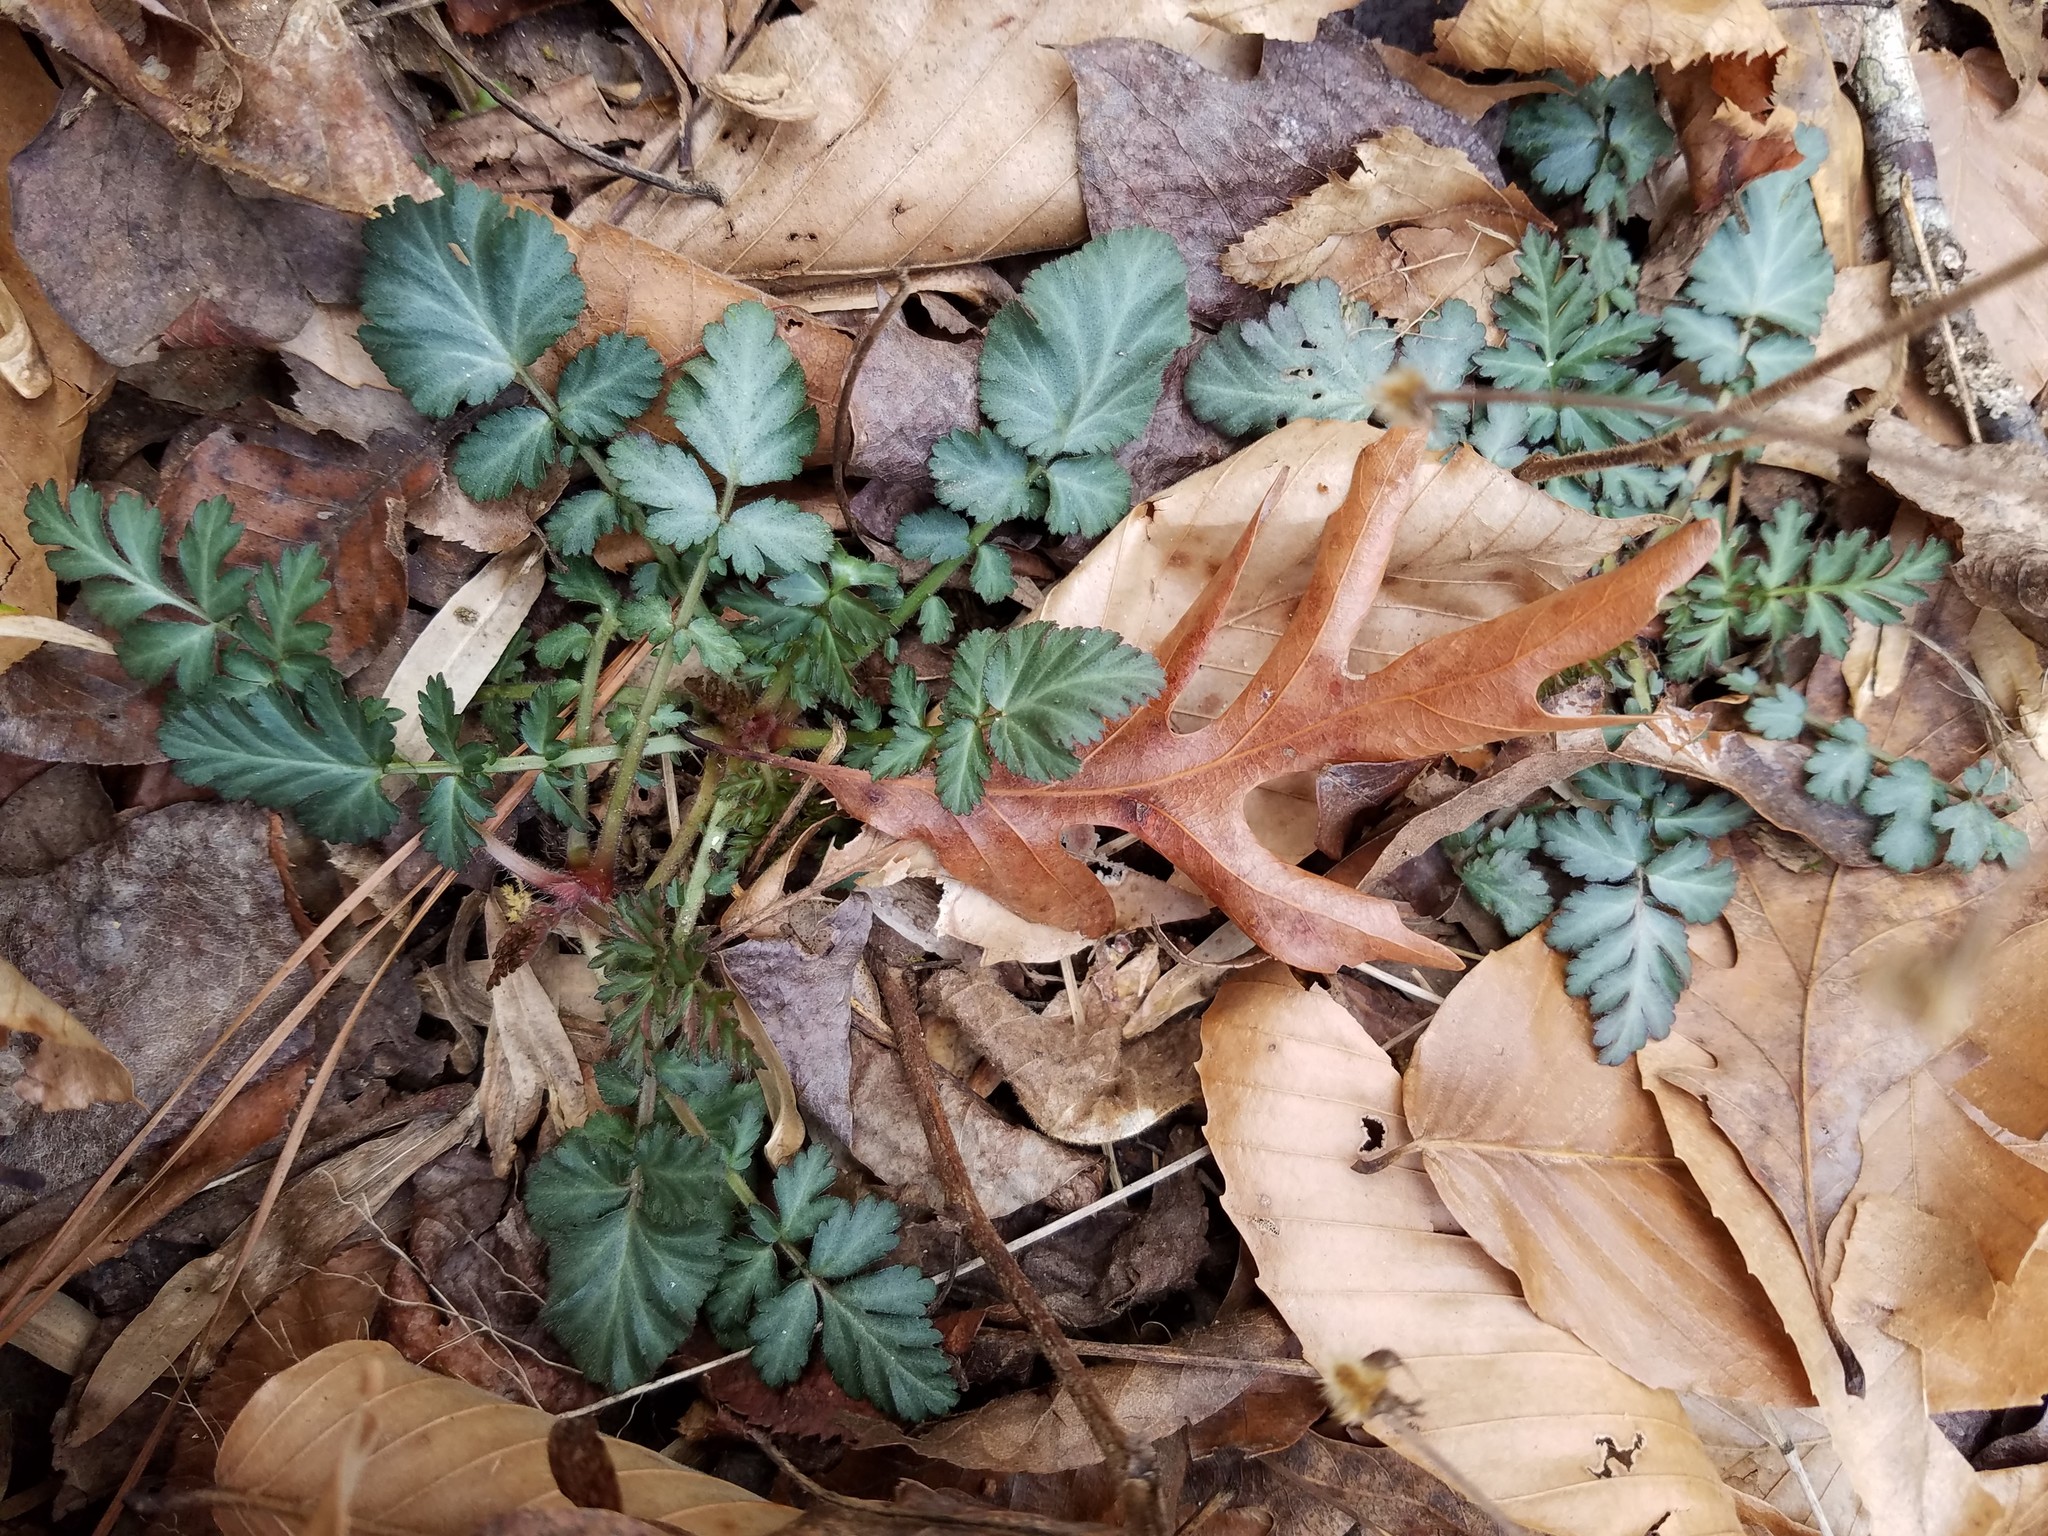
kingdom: Plantae
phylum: Tracheophyta
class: Magnoliopsida
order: Rosales
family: Rosaceae
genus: Geum
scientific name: Geum canadense
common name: White avens
